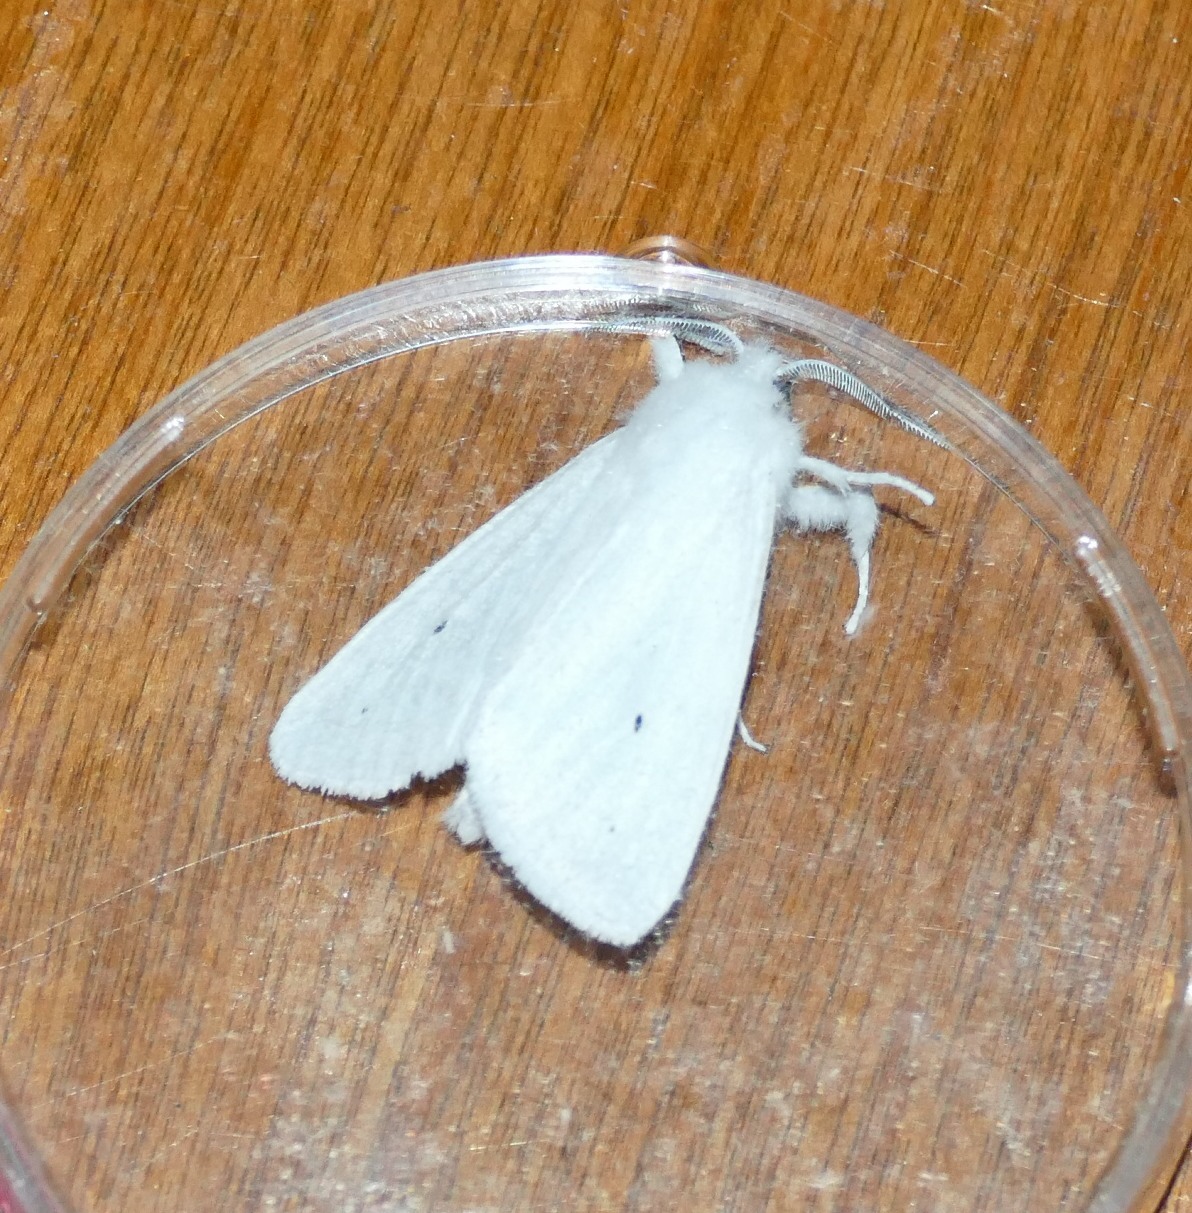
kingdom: Animalia
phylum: Arthropoda
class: Insecta
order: Lepidoptera
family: Erebidae
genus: Spilosoma
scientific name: Spilosoma virginica
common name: Virginia tiger moth
